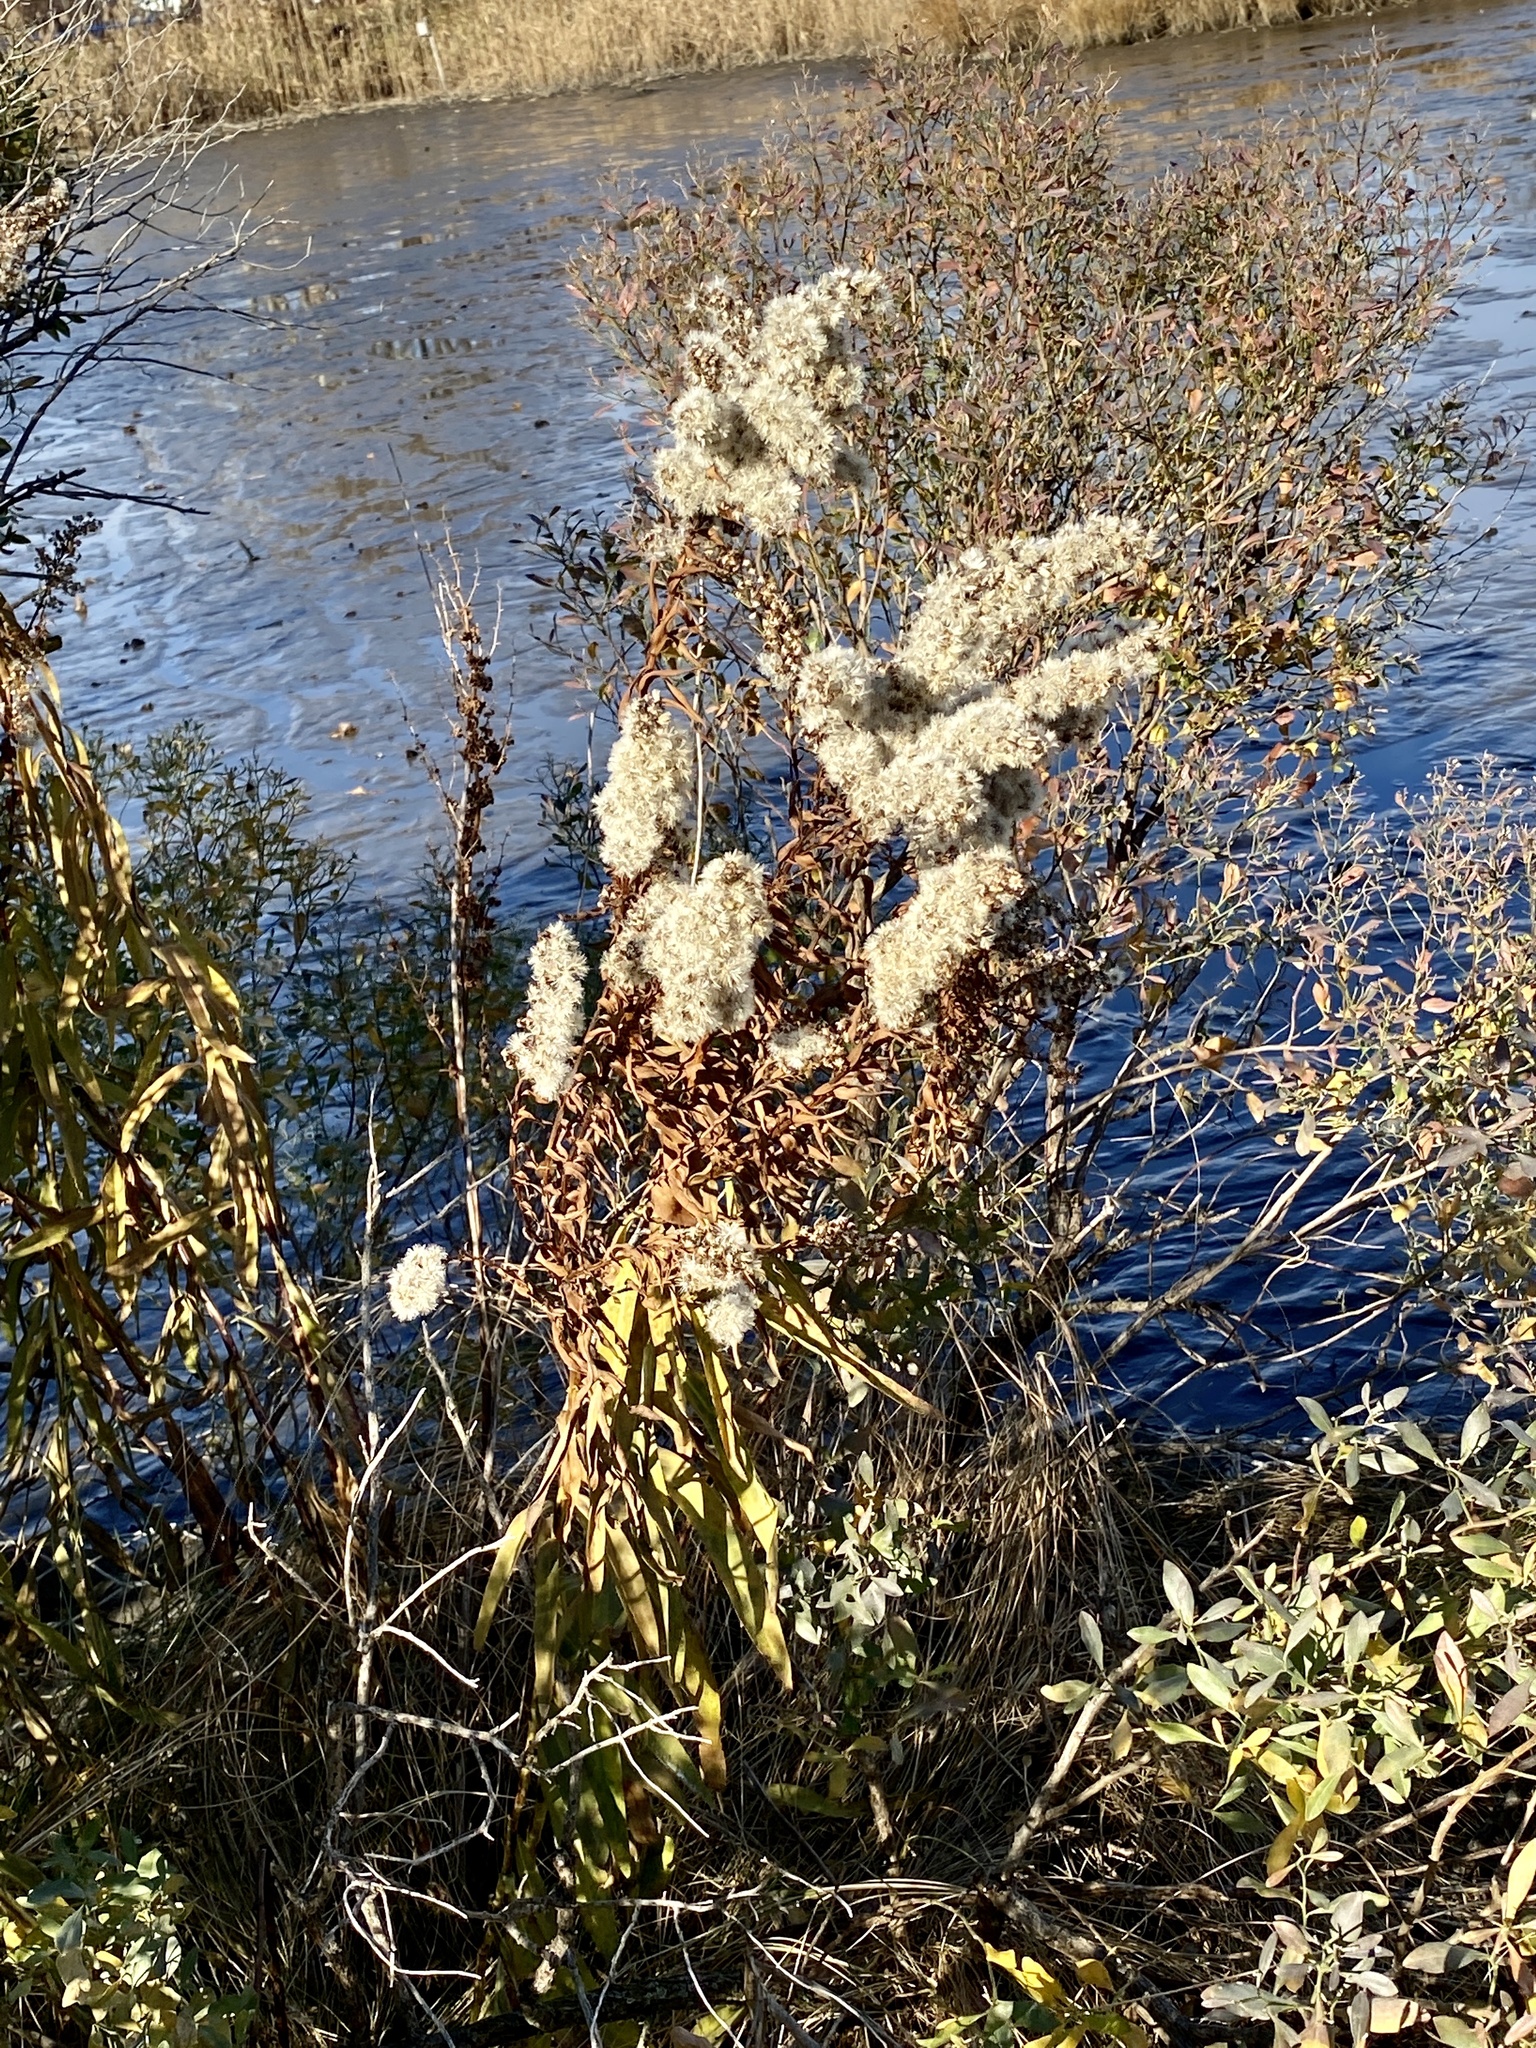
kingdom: Plantae
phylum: Tracheophyta
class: Magnoliopsida
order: Asterales
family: Asteraceae
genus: Solidago
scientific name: Solidago sempervirens
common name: Salt-marsh goldenrod
